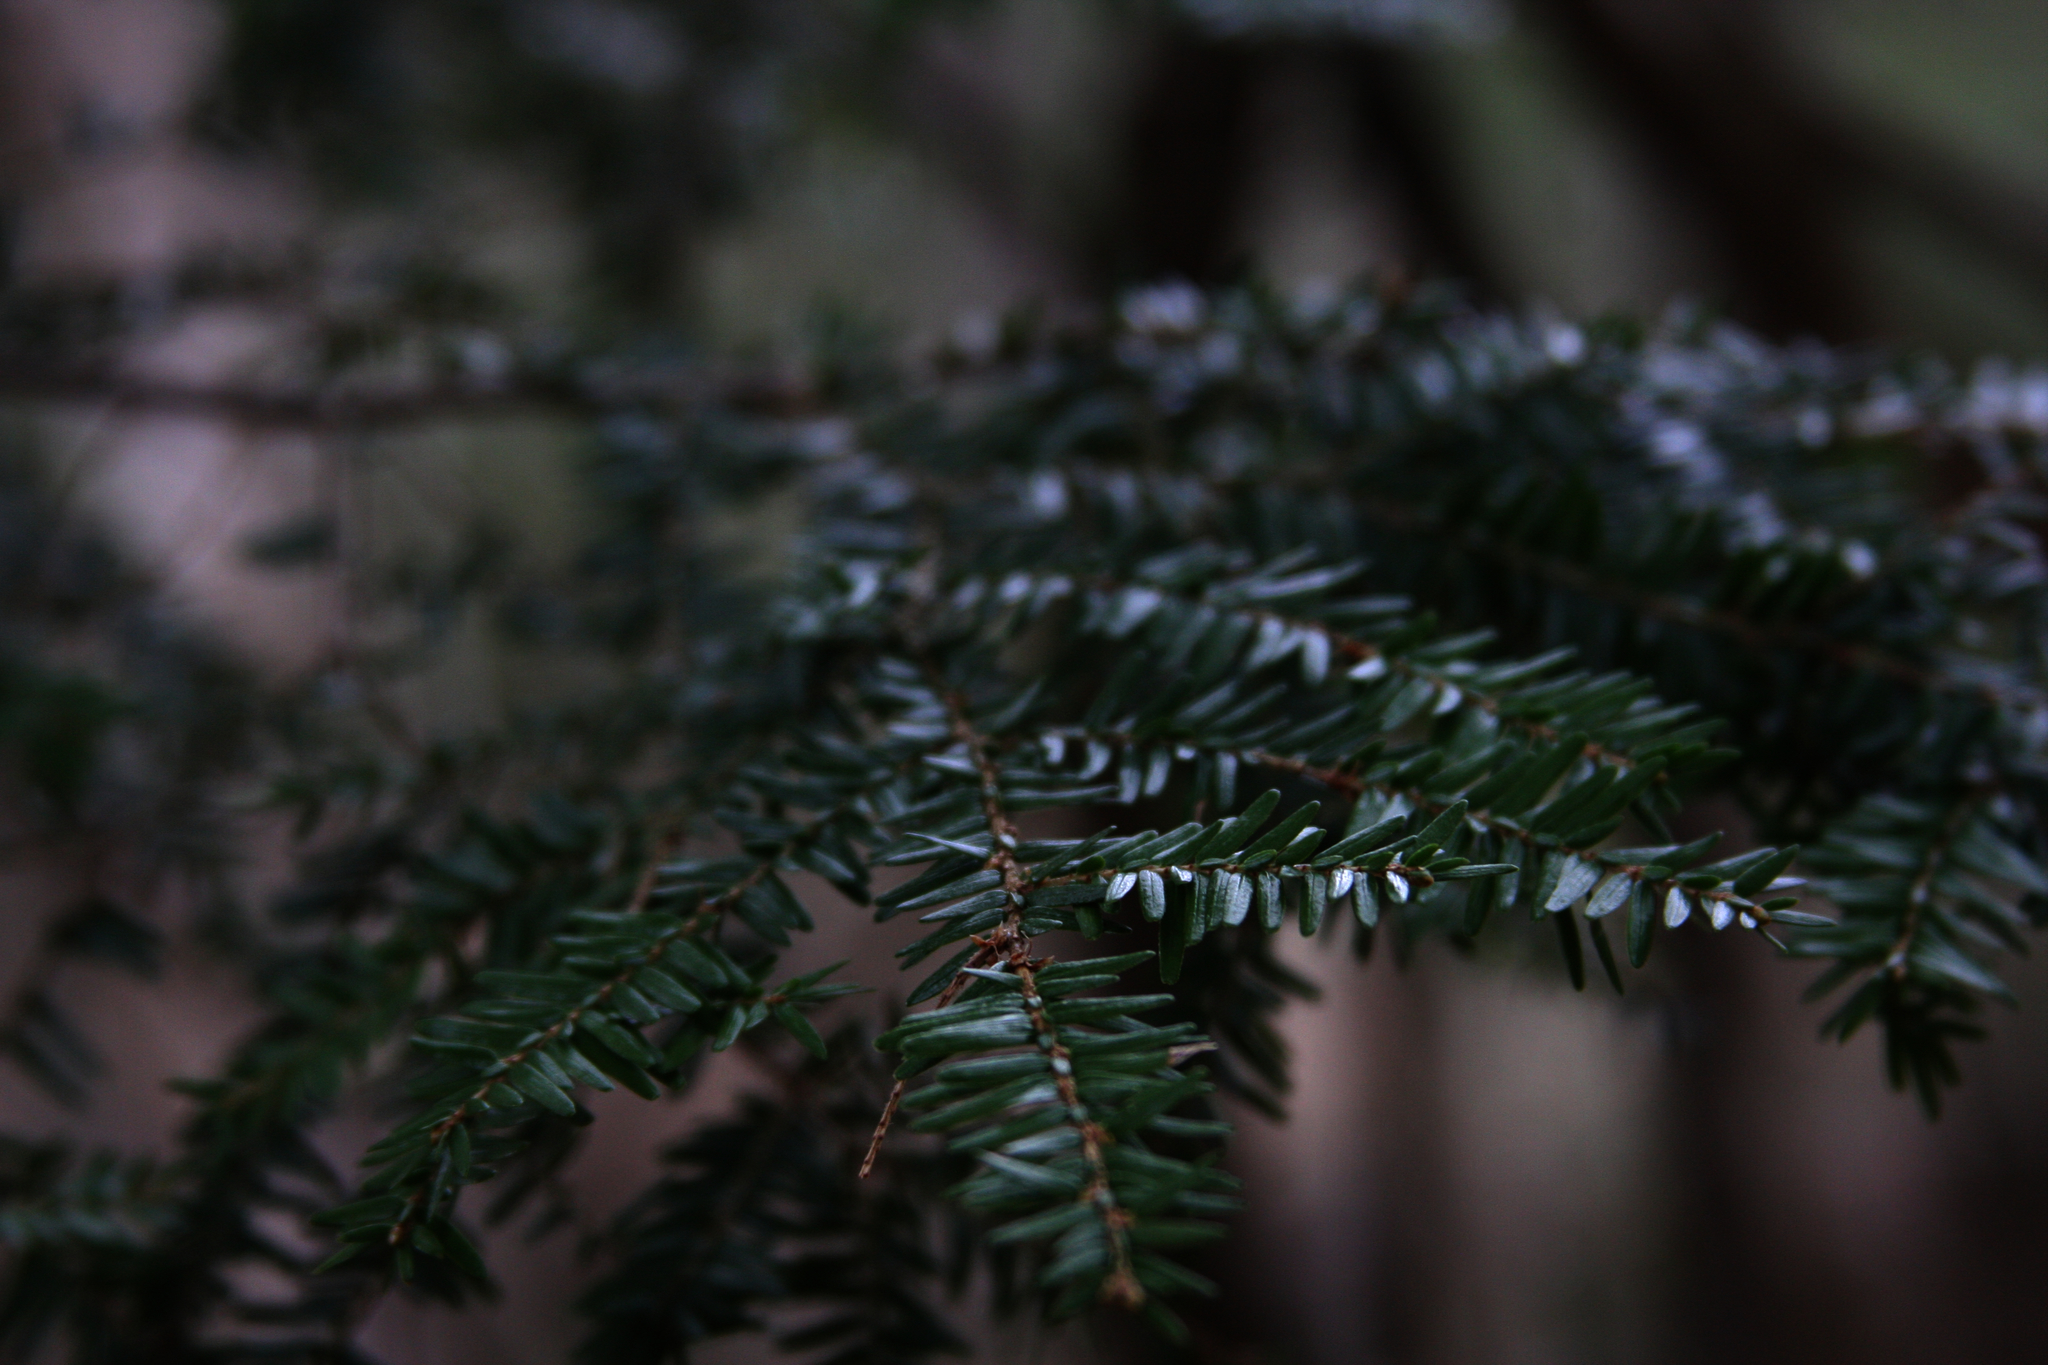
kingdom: Plantae
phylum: Tracheophyta
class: Pinopsida
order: Pinales
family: Pinaceae
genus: Tsuga
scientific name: Tsuga canadensis
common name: Eastern hemlock
